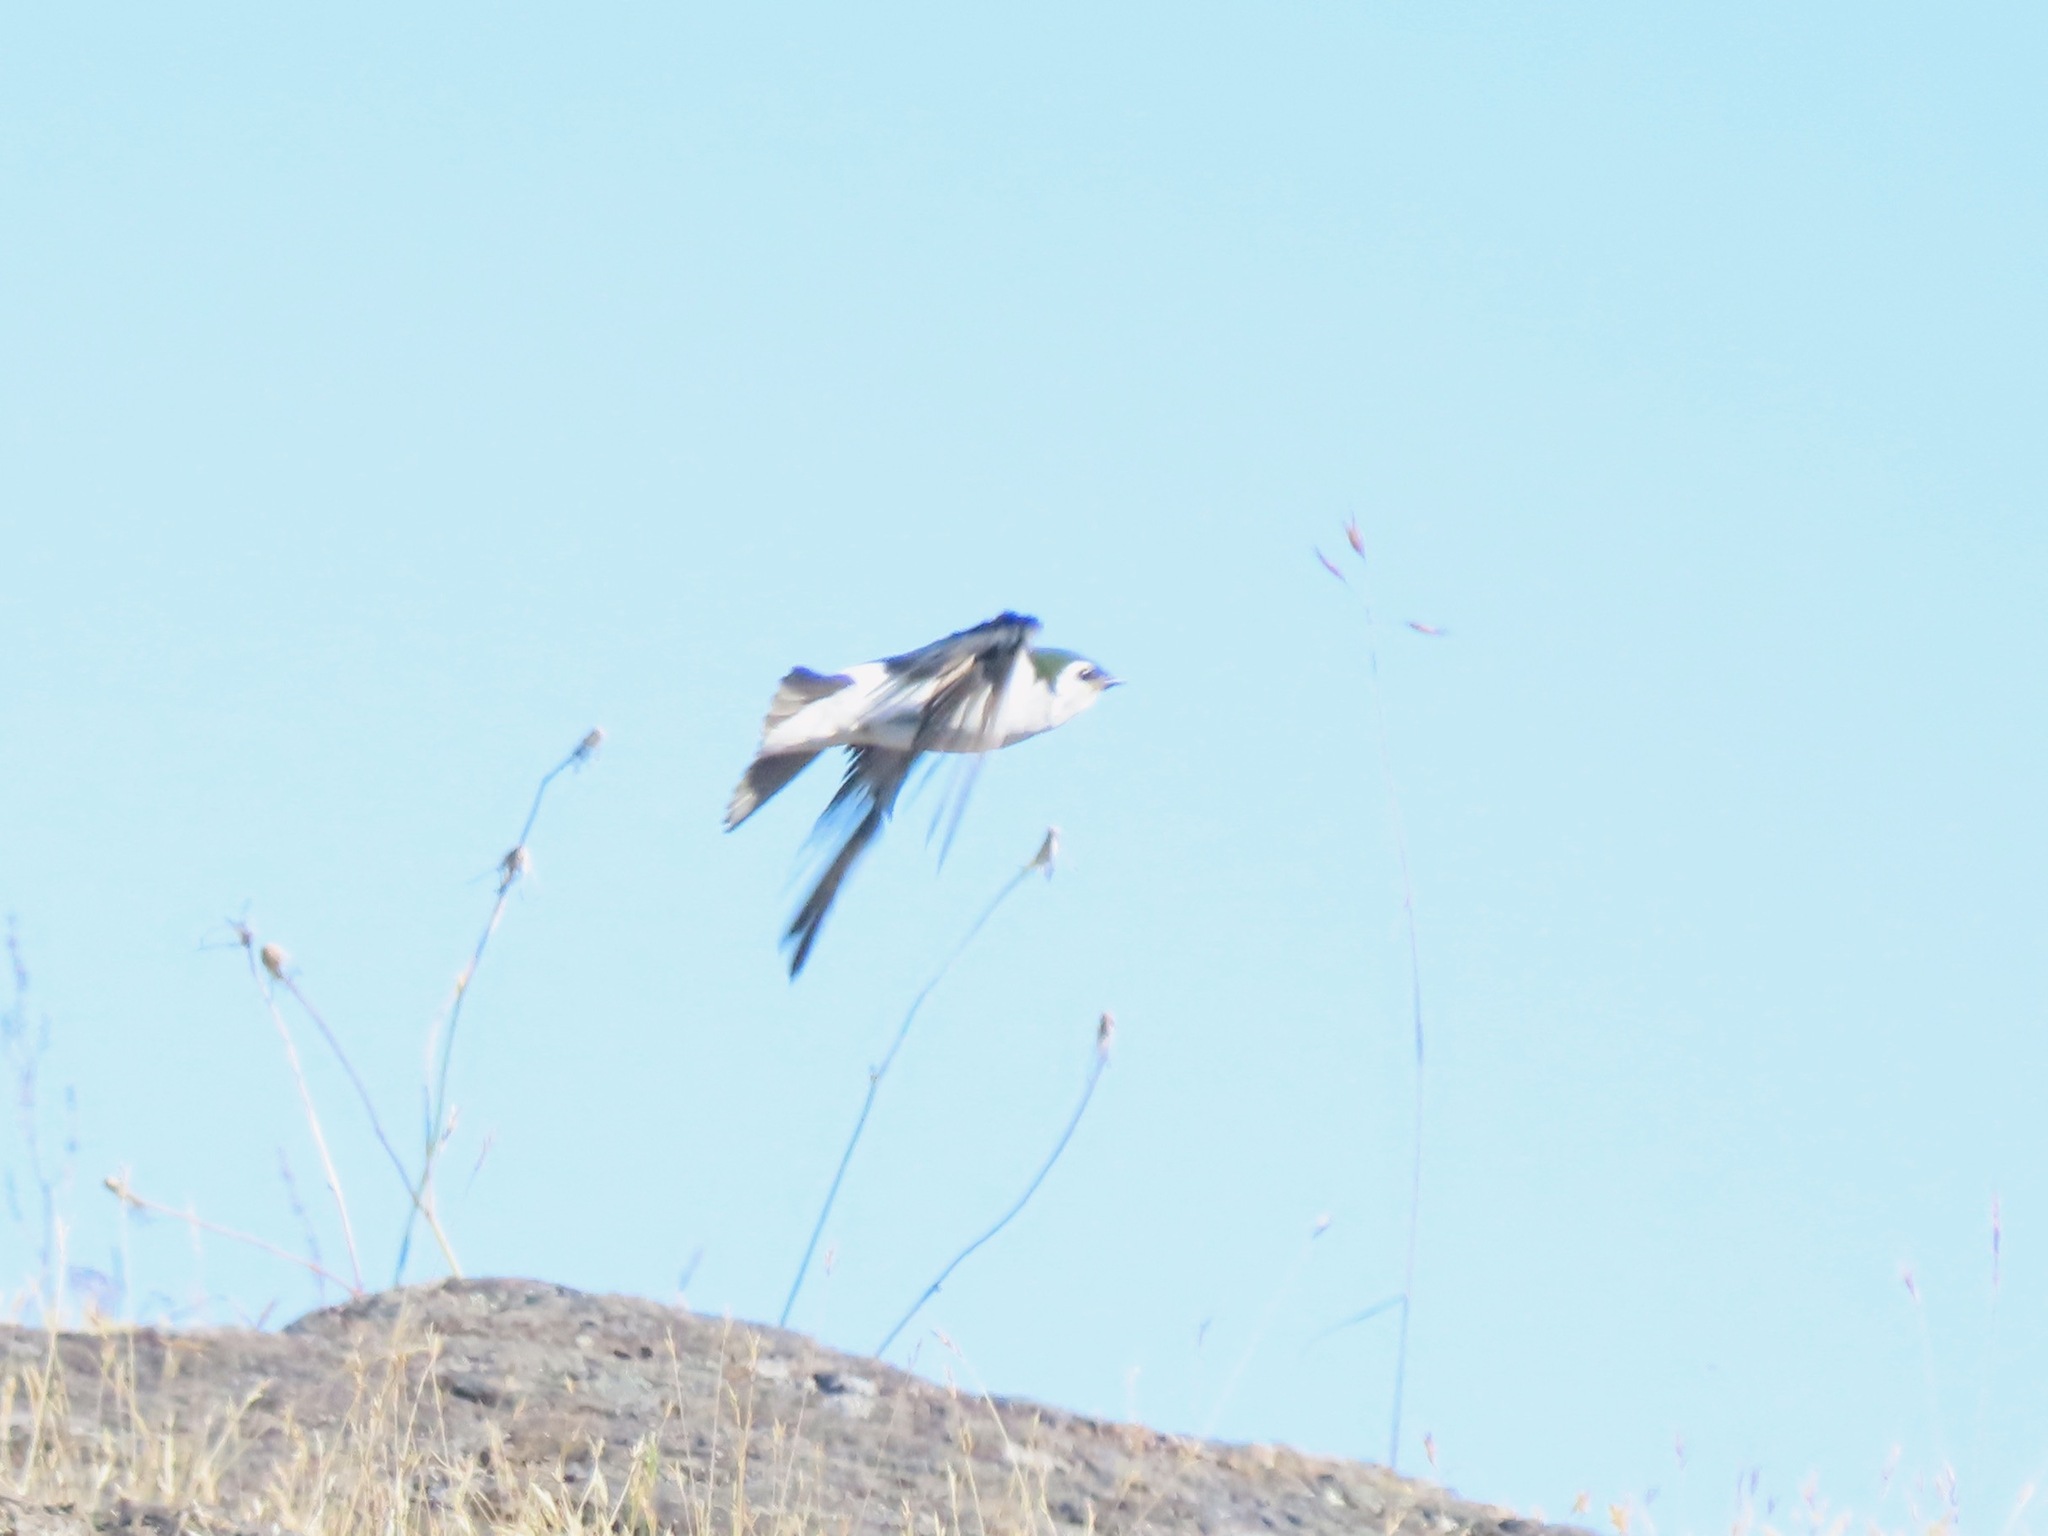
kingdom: Animalia
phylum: Chordata
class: Aves
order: Passeriformes
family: Hirundinidae
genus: Tachycineta
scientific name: Tachycineta thalassina
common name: Violet-green swallow
